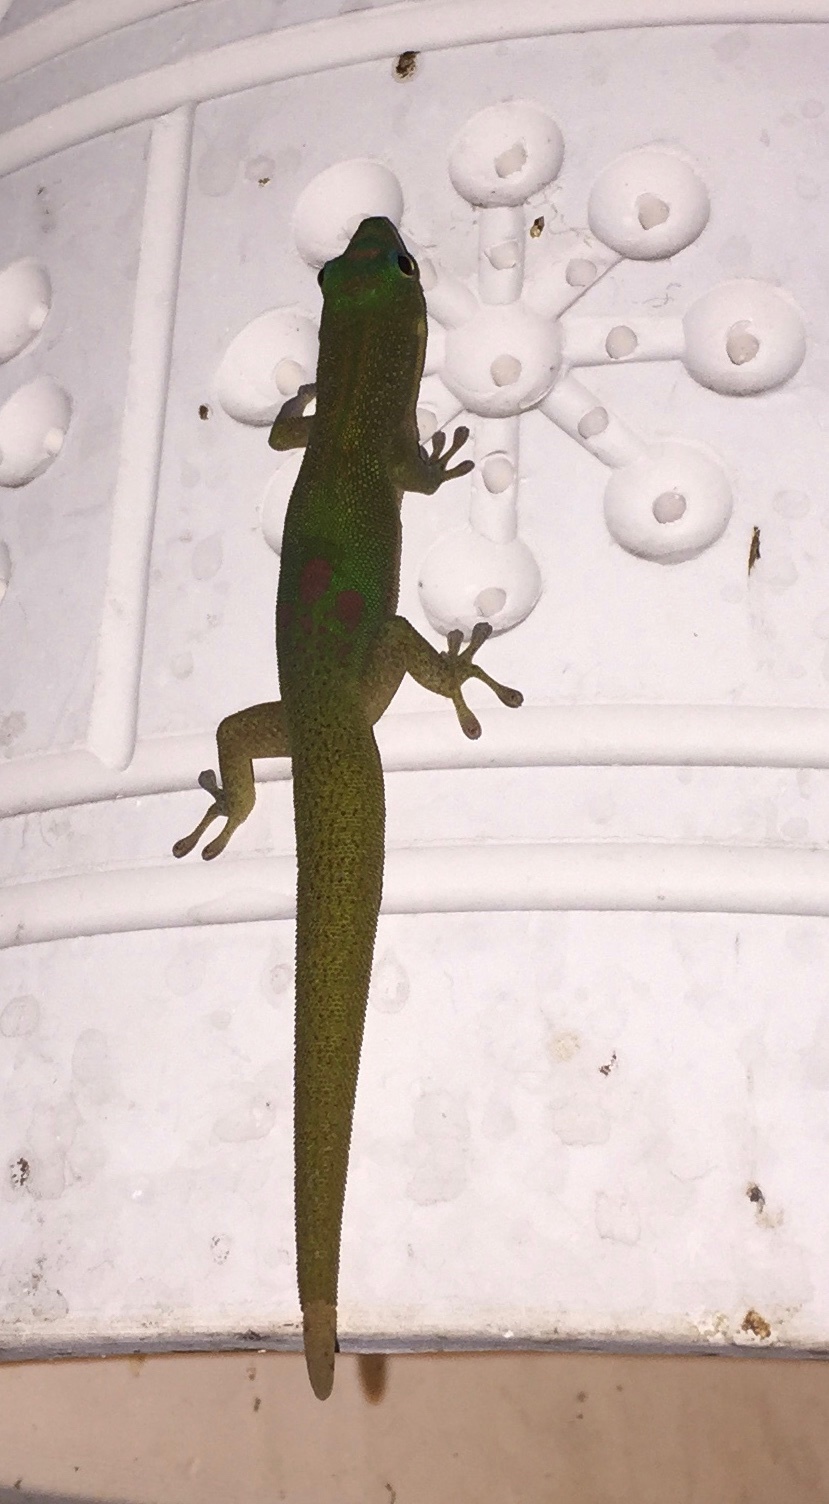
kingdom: Animalia
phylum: Chordata
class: Squamata
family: Gekkonidae
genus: Phelsuma
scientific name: Phelsuma laticauda
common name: Gold dust day gecko
